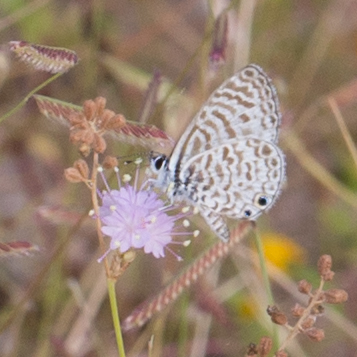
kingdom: Animalia
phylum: Arthropoda
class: Insecta
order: Lepidoptera
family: Lycaenidae
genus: Leptotes
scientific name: Leptotes cassius
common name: Cassius blue
